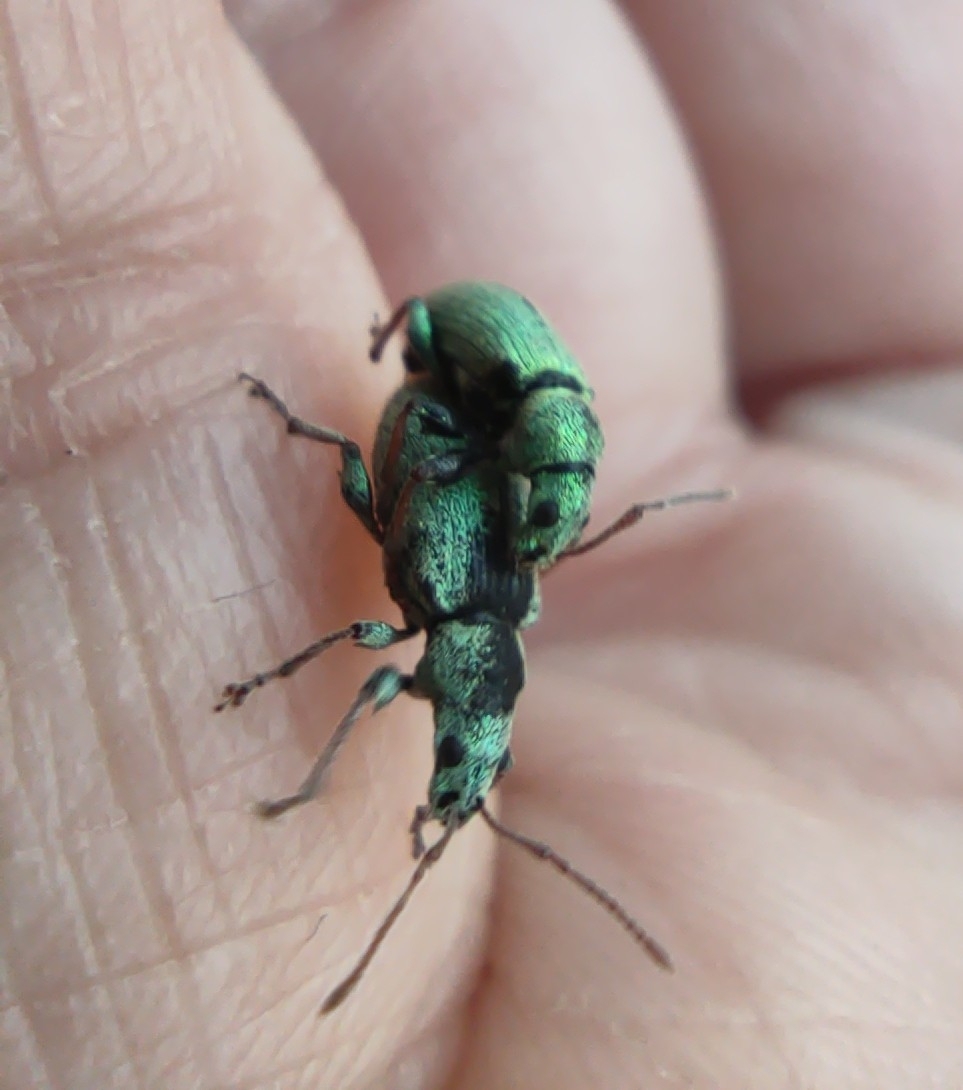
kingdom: Animalia
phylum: Arthropoda
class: Insecta
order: Coleoptera
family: Curculionidae
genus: Phyllobius
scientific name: Phyllobius argentatus
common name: Silver-green leaf weevil
